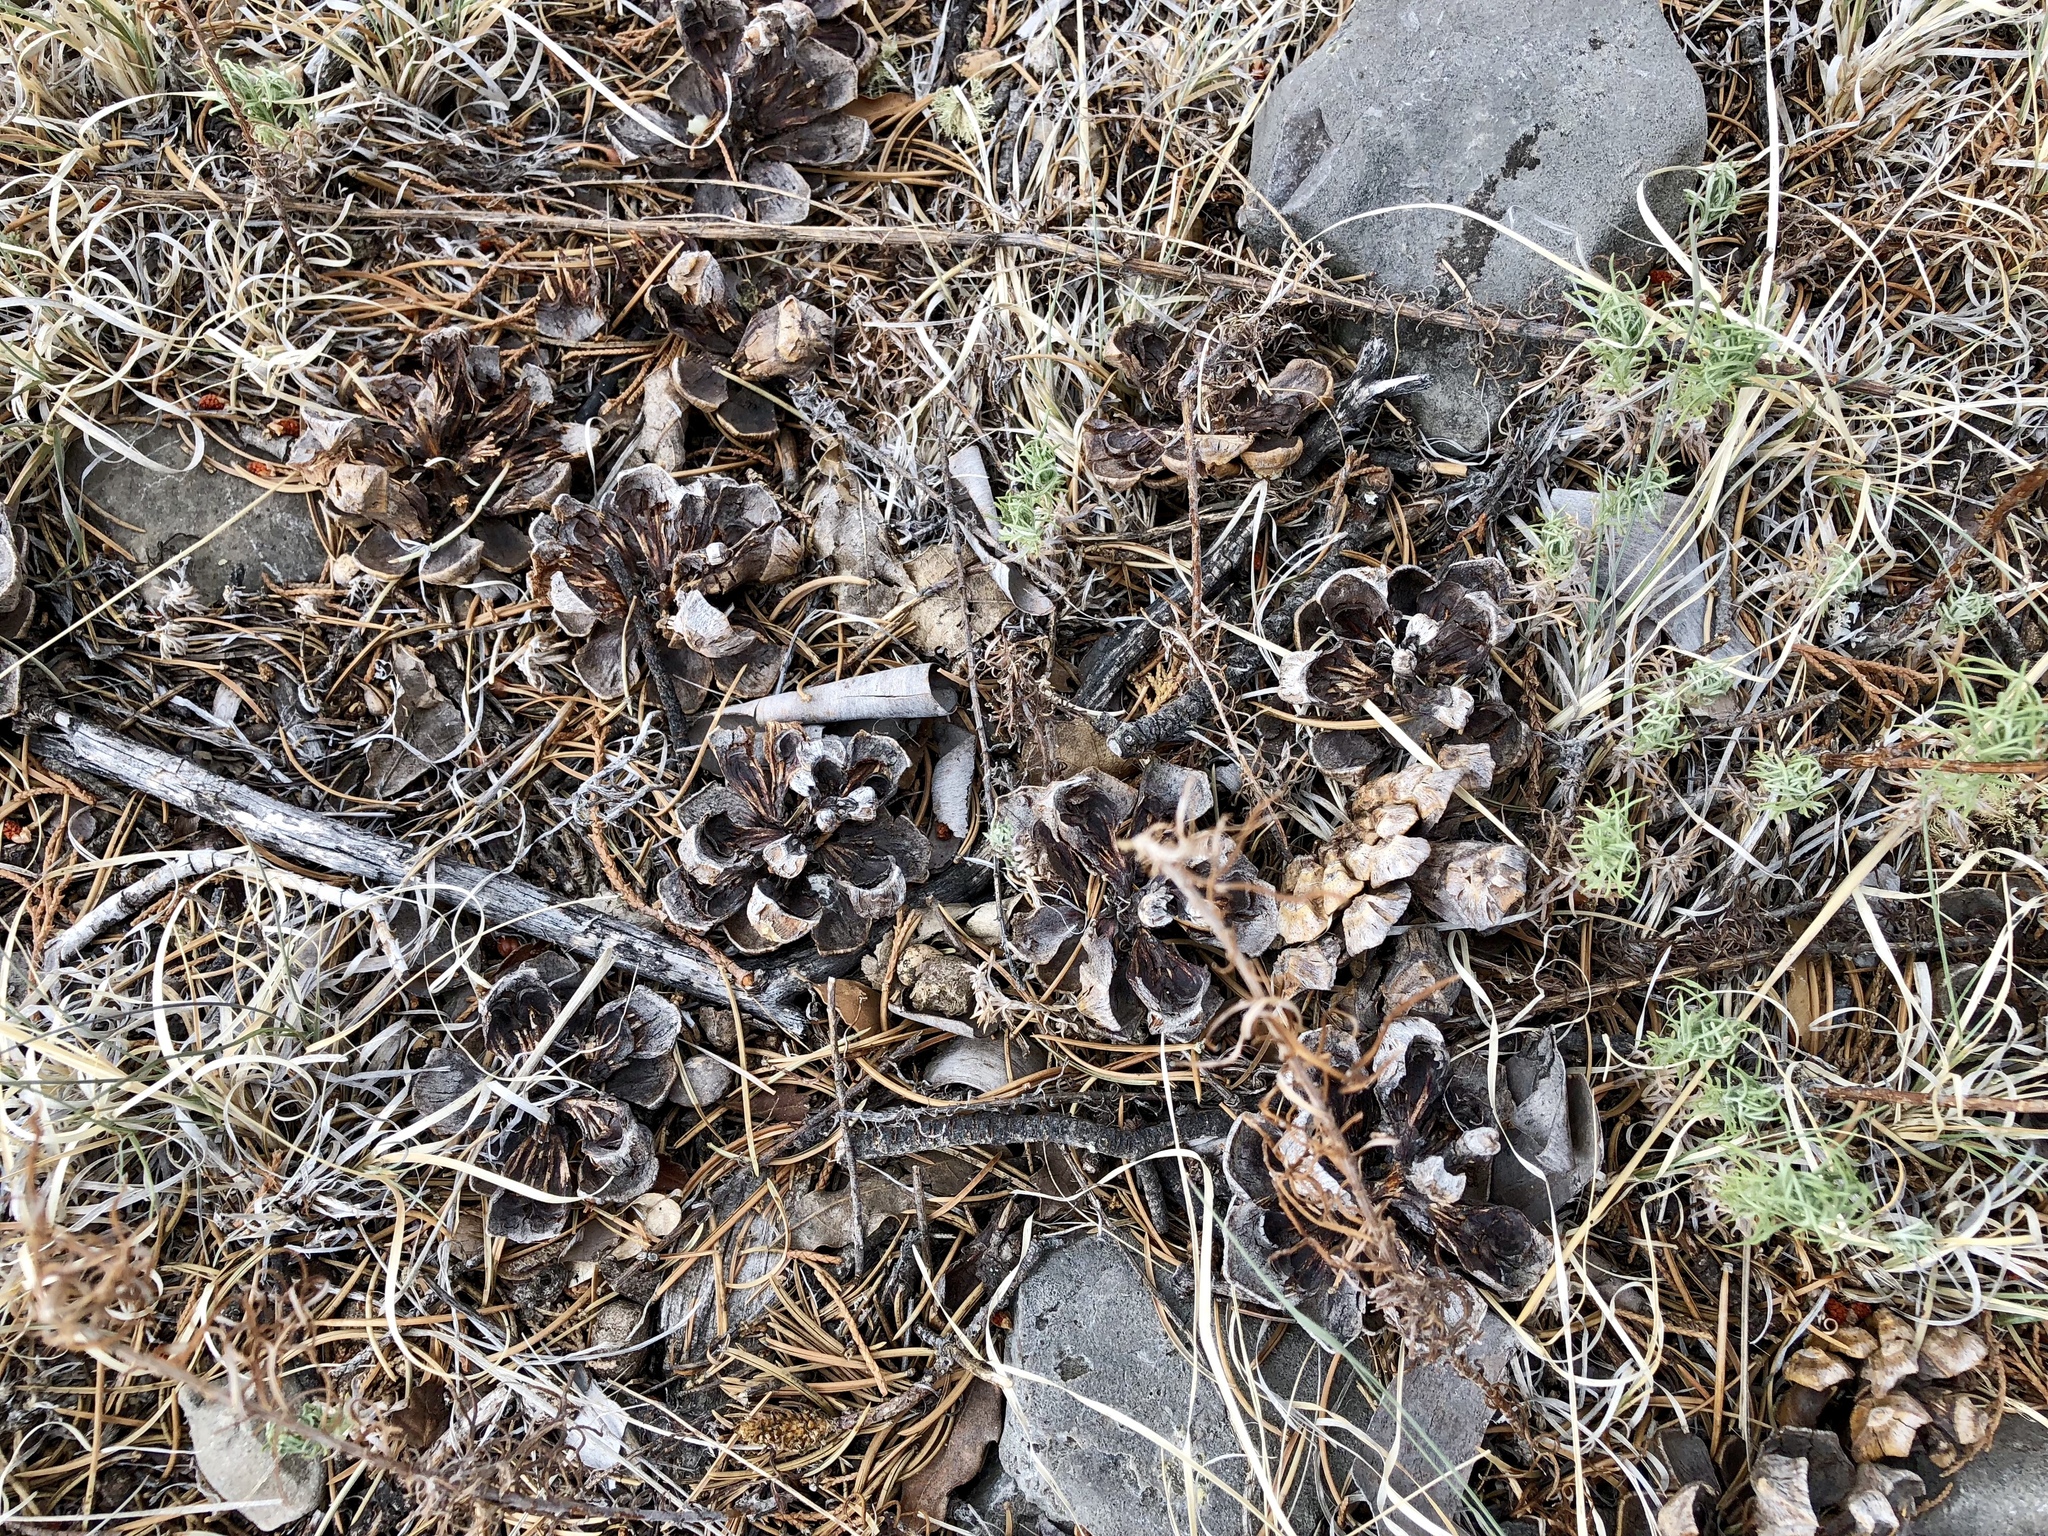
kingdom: Plantae
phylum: Tracheophyta
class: Pinopsida
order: Pinales
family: Pinaceae
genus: Pinus
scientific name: Pinus edulis
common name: Colorado pinyon
